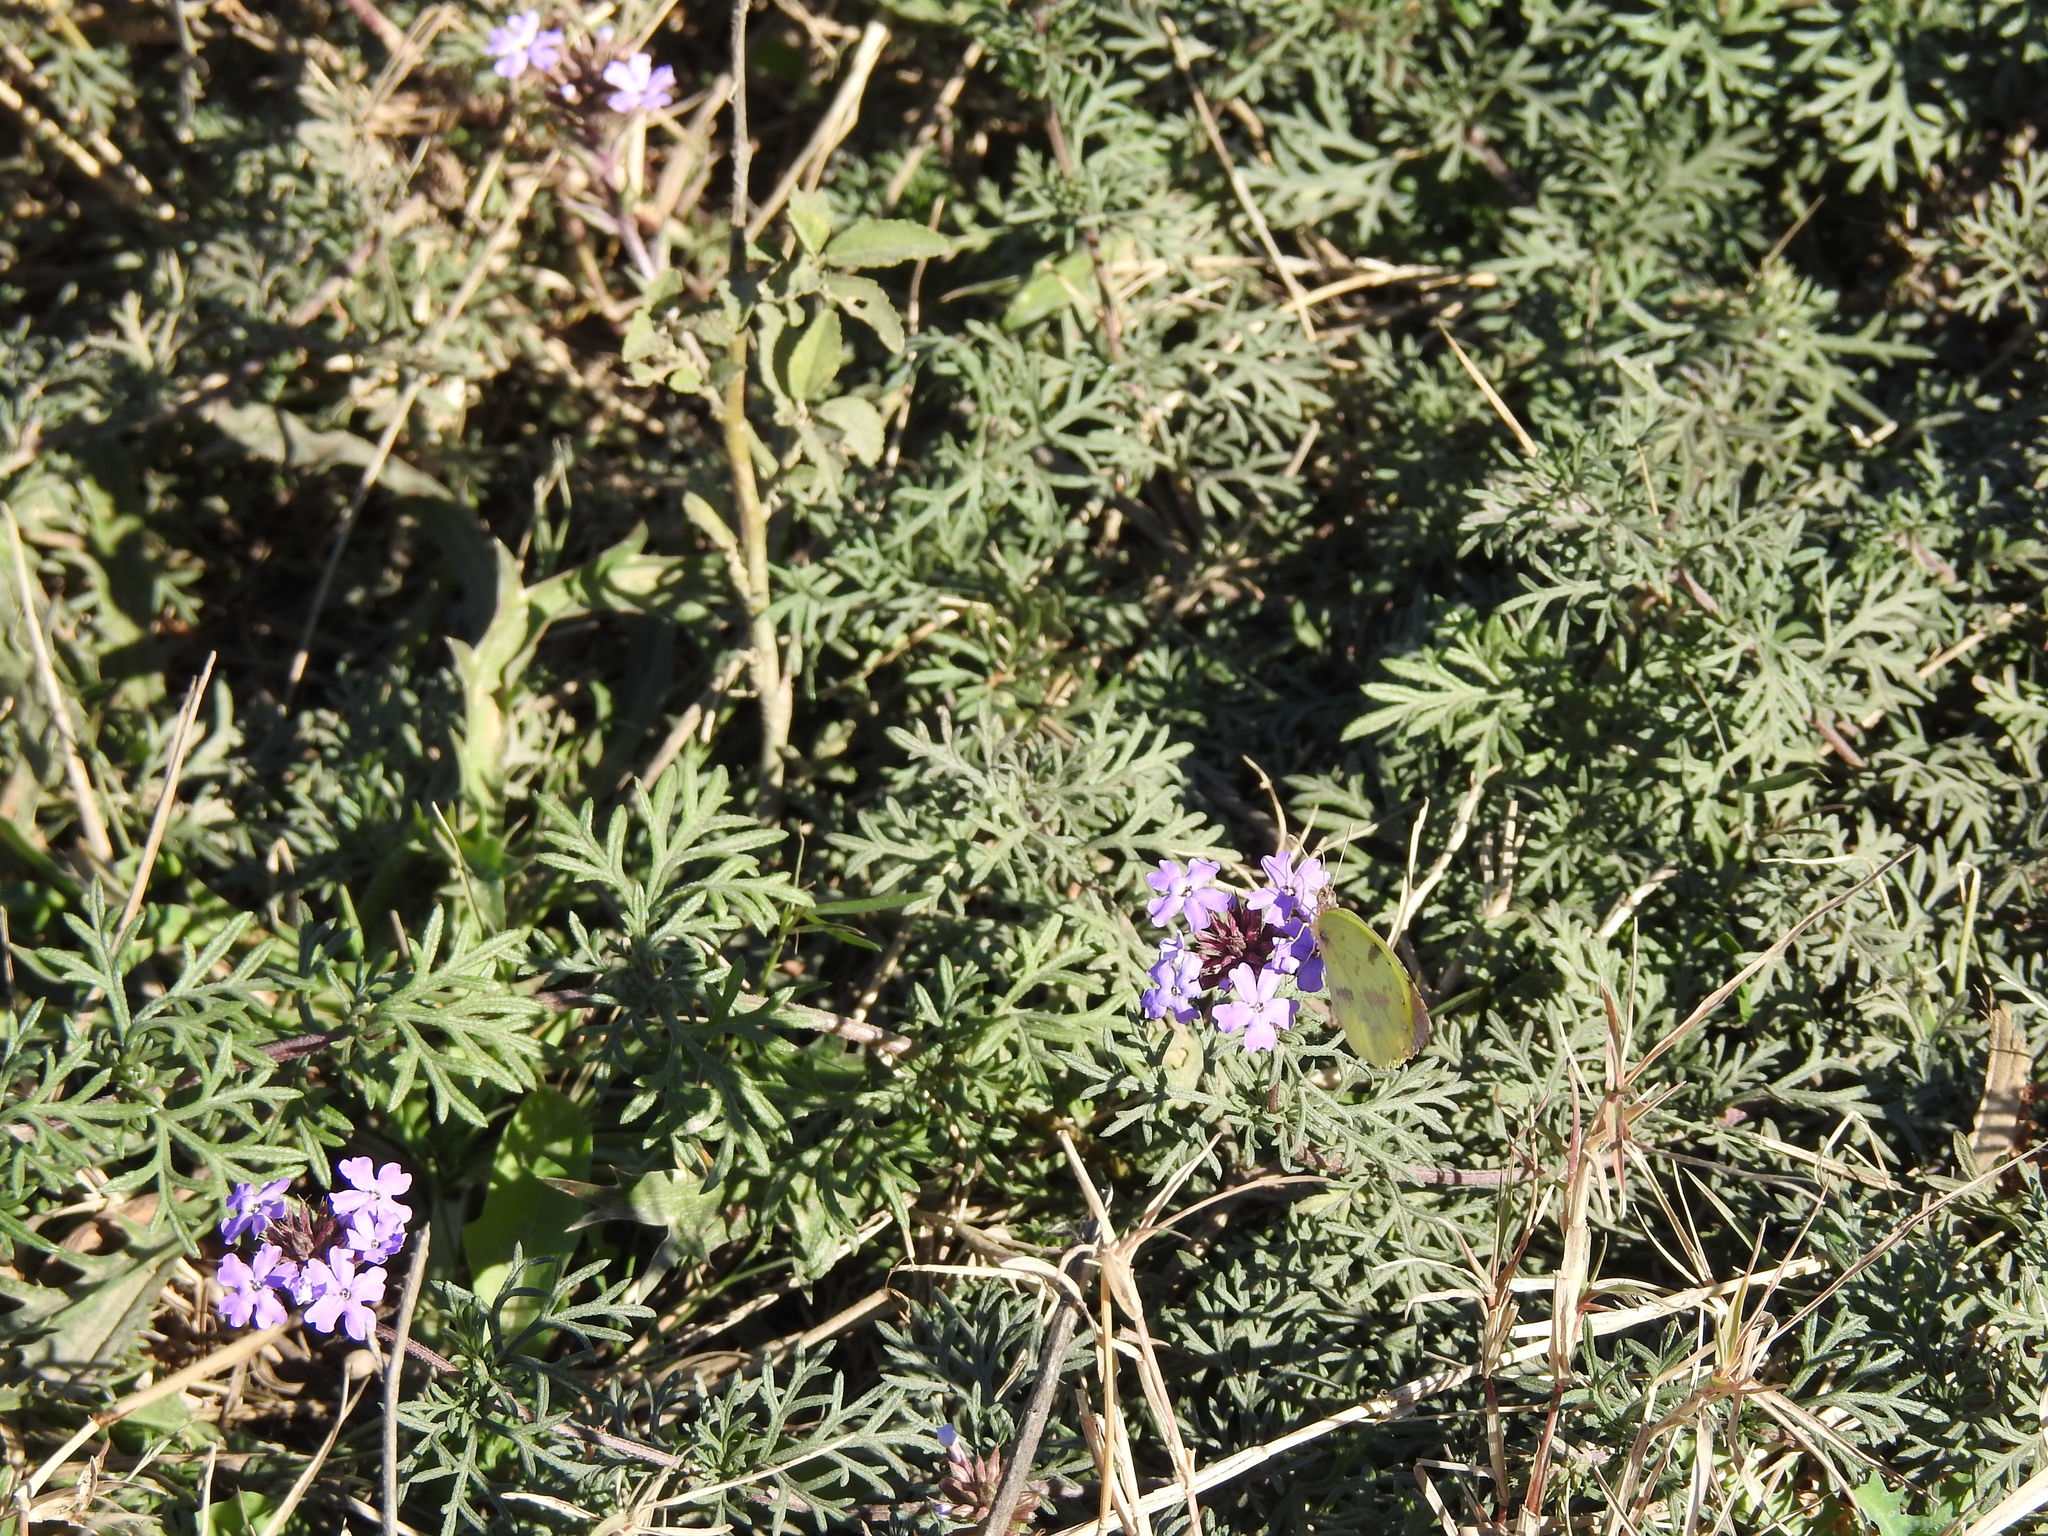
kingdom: Plantae
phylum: Tracheophyta
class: Magnoliopsida
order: Lamiales
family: Verbenaceae
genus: Verbena
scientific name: Verbena tenera
